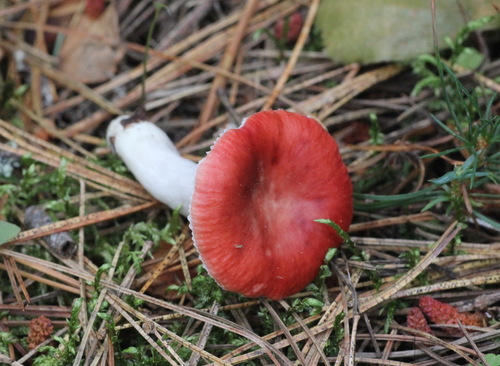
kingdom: Fungi
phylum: Basidiomycota
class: Agaricomycetes
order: Russulales
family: Russulaceae
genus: Russula
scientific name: Russula
